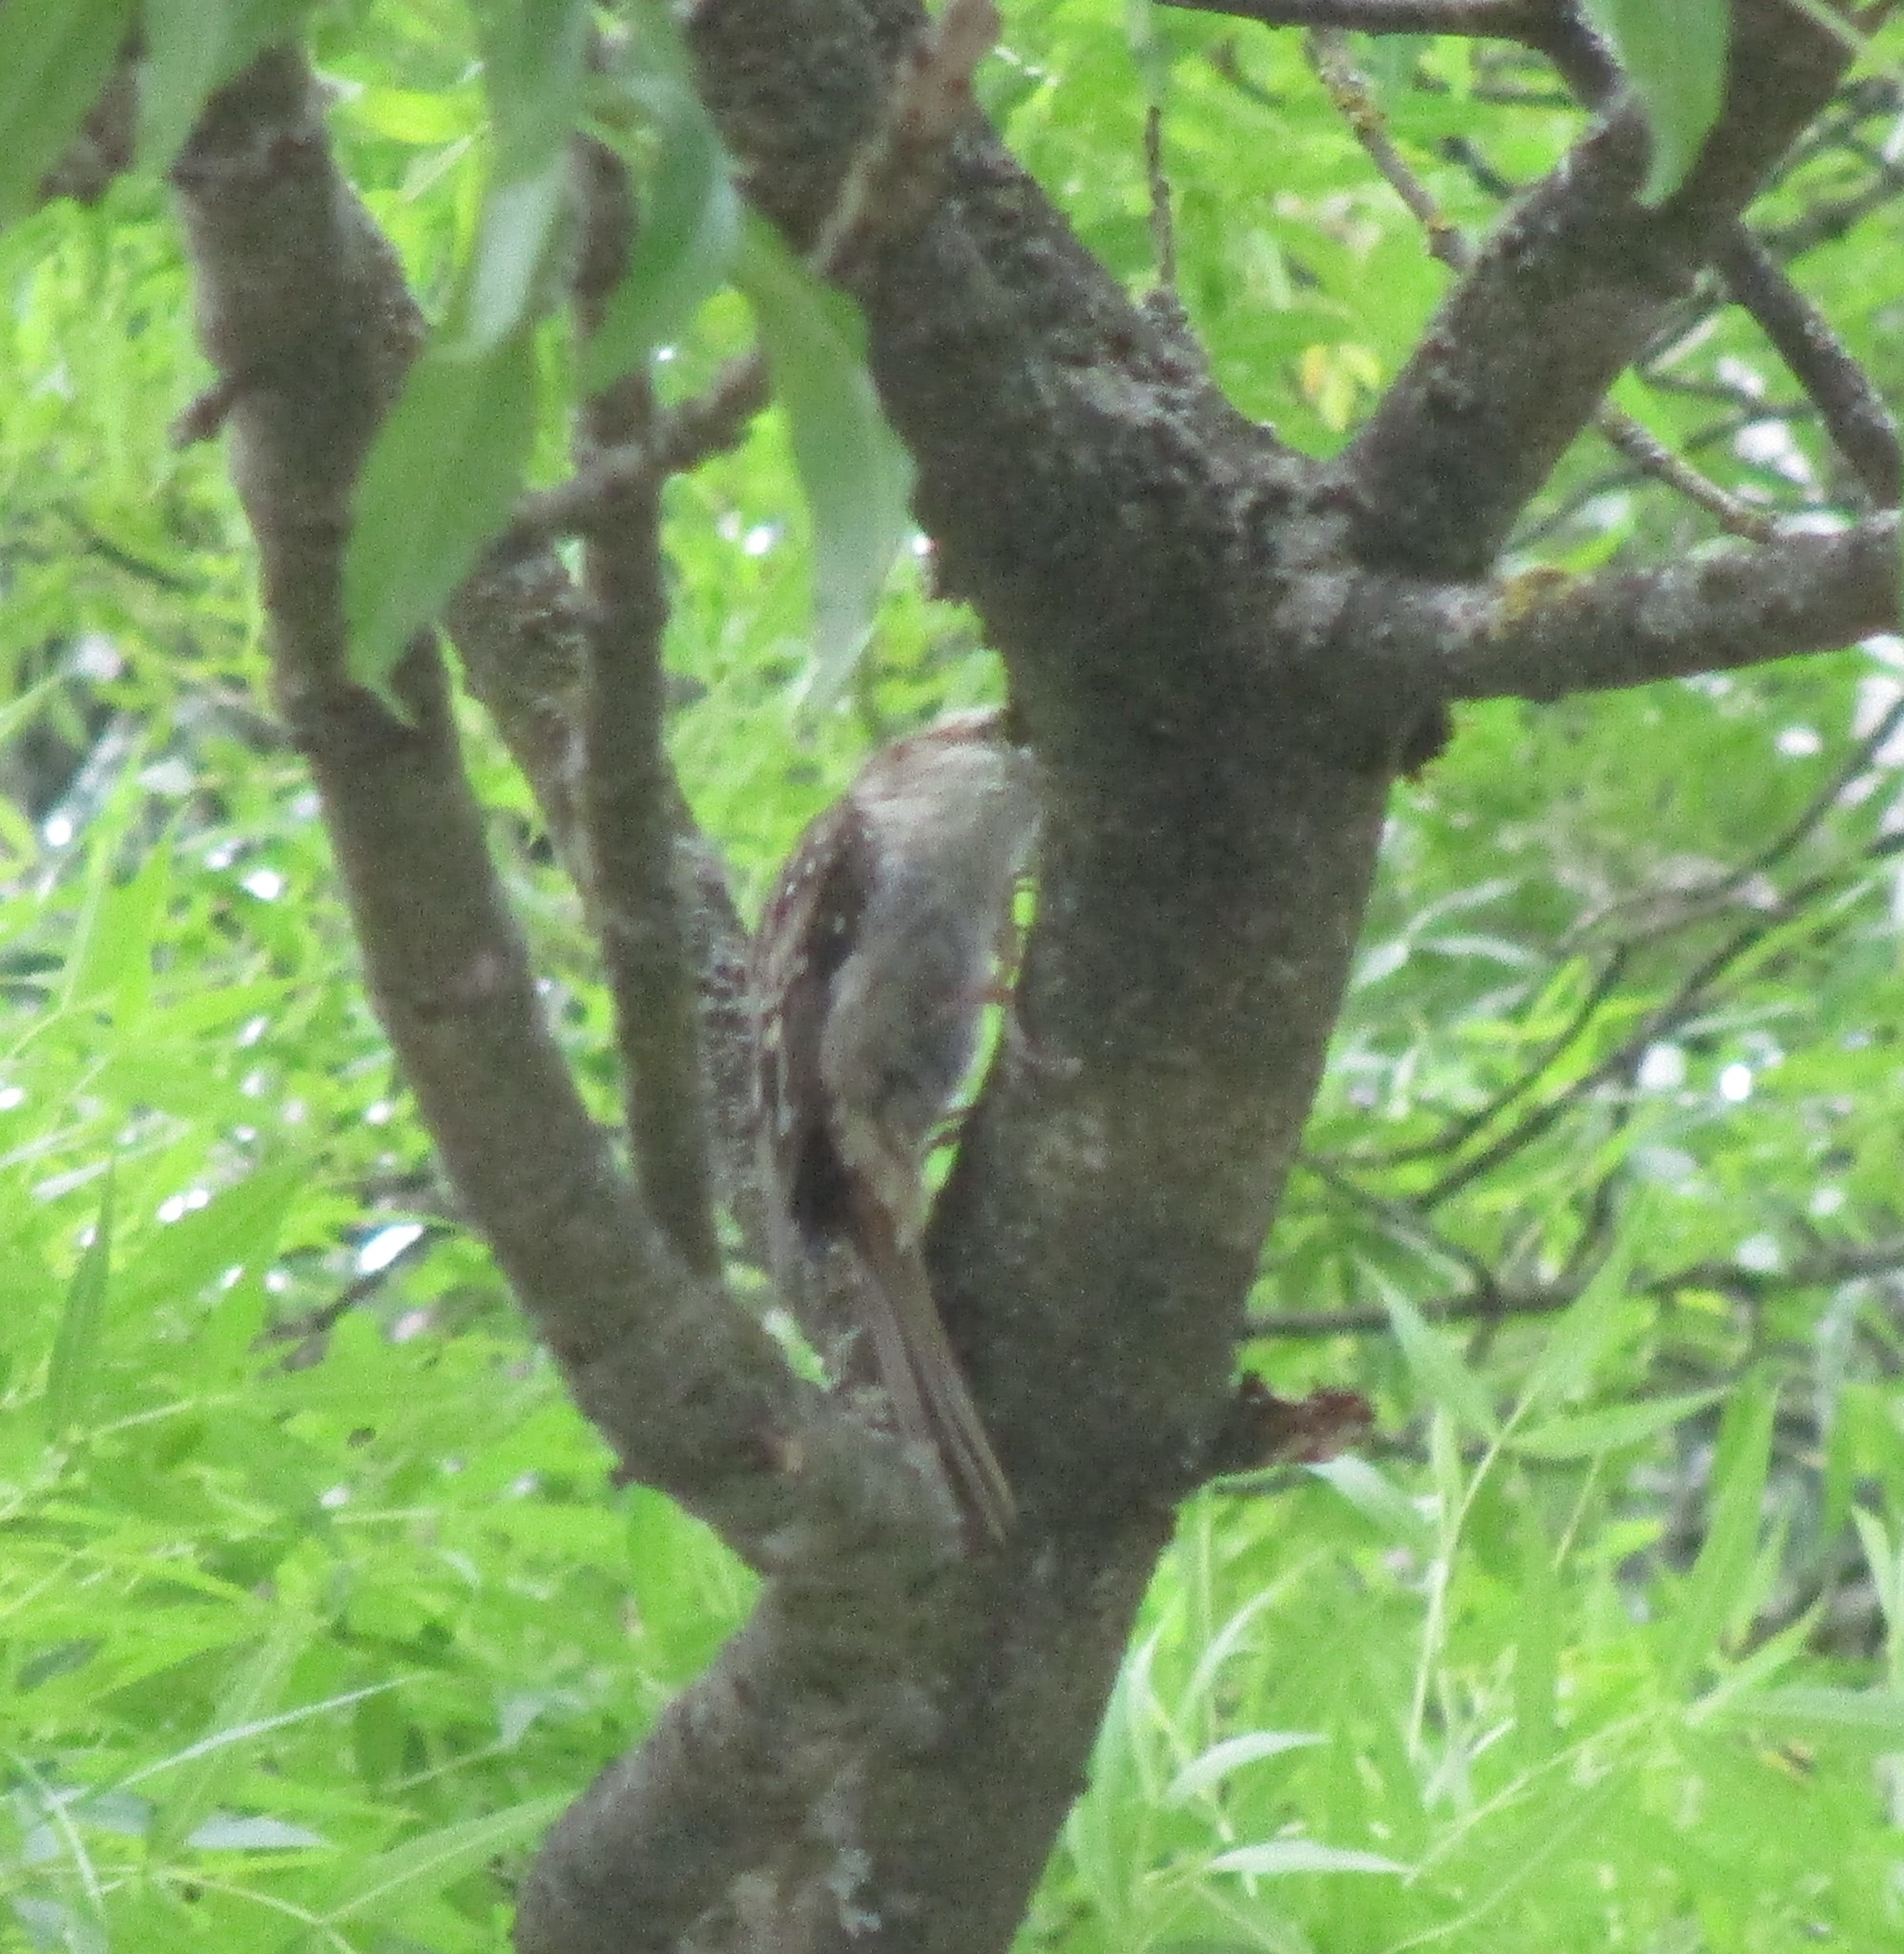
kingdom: Animalia
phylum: Chordata
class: Aves
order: Passeriformes
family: Certhiidae
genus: Certhia
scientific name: Certhia americana
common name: Brown creeper
